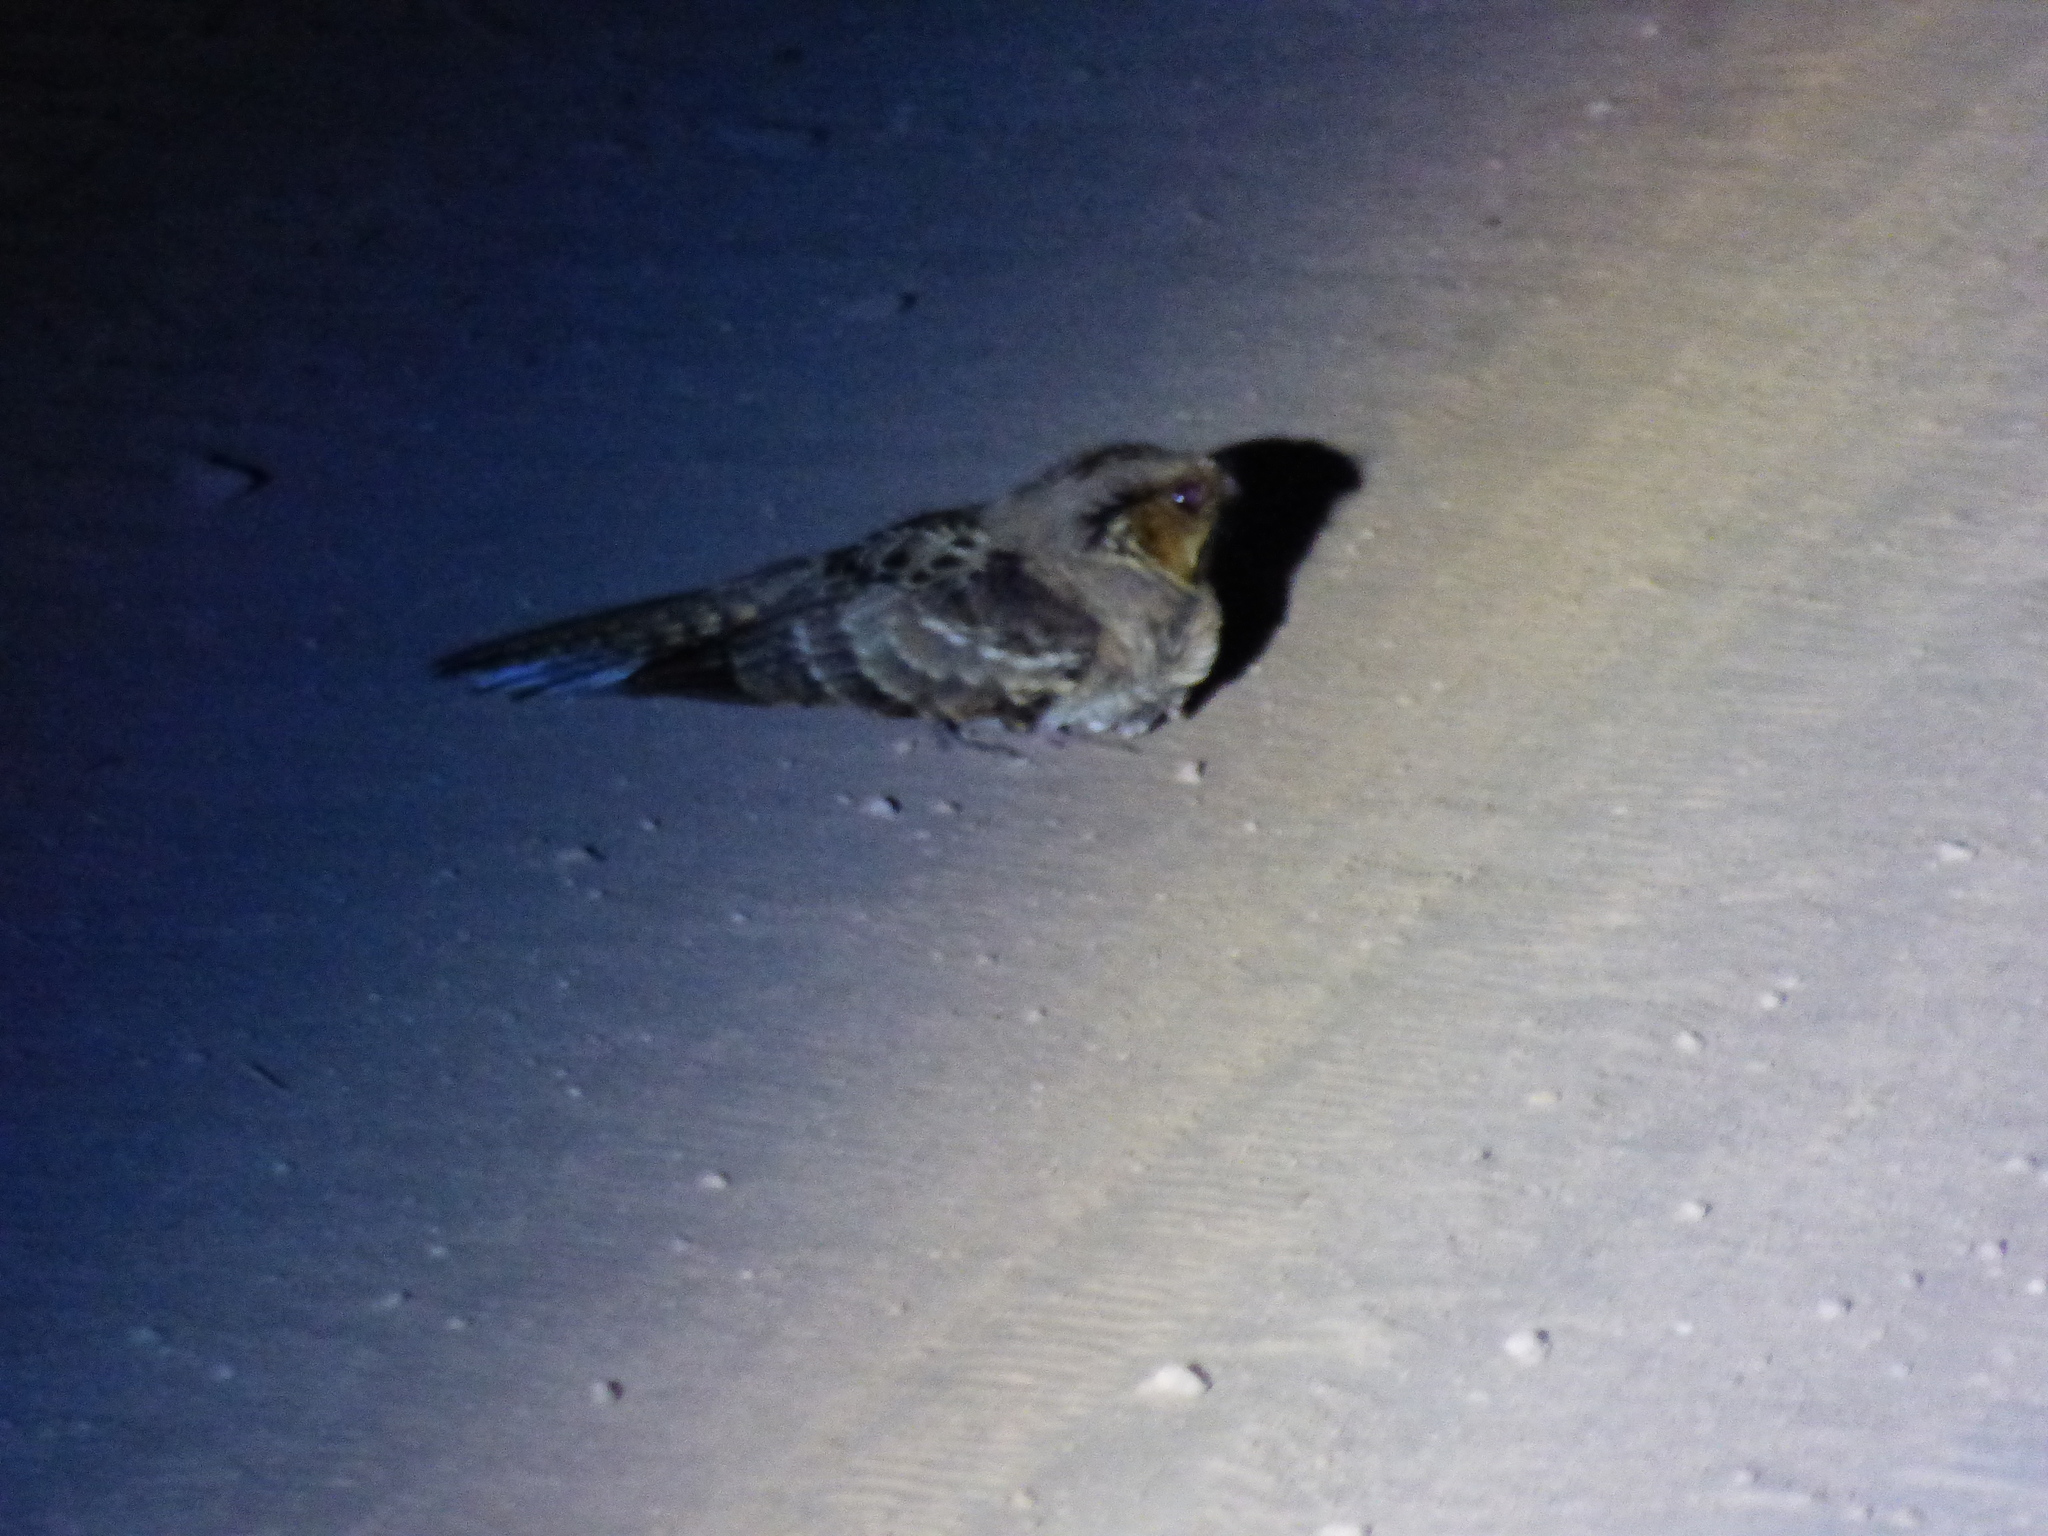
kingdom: Animalia
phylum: Chordata
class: Aves
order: Caprimulgiformes
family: Caprimulgidae
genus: Nyctidromus
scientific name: Nyctidromus albicollis
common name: Pauraque
